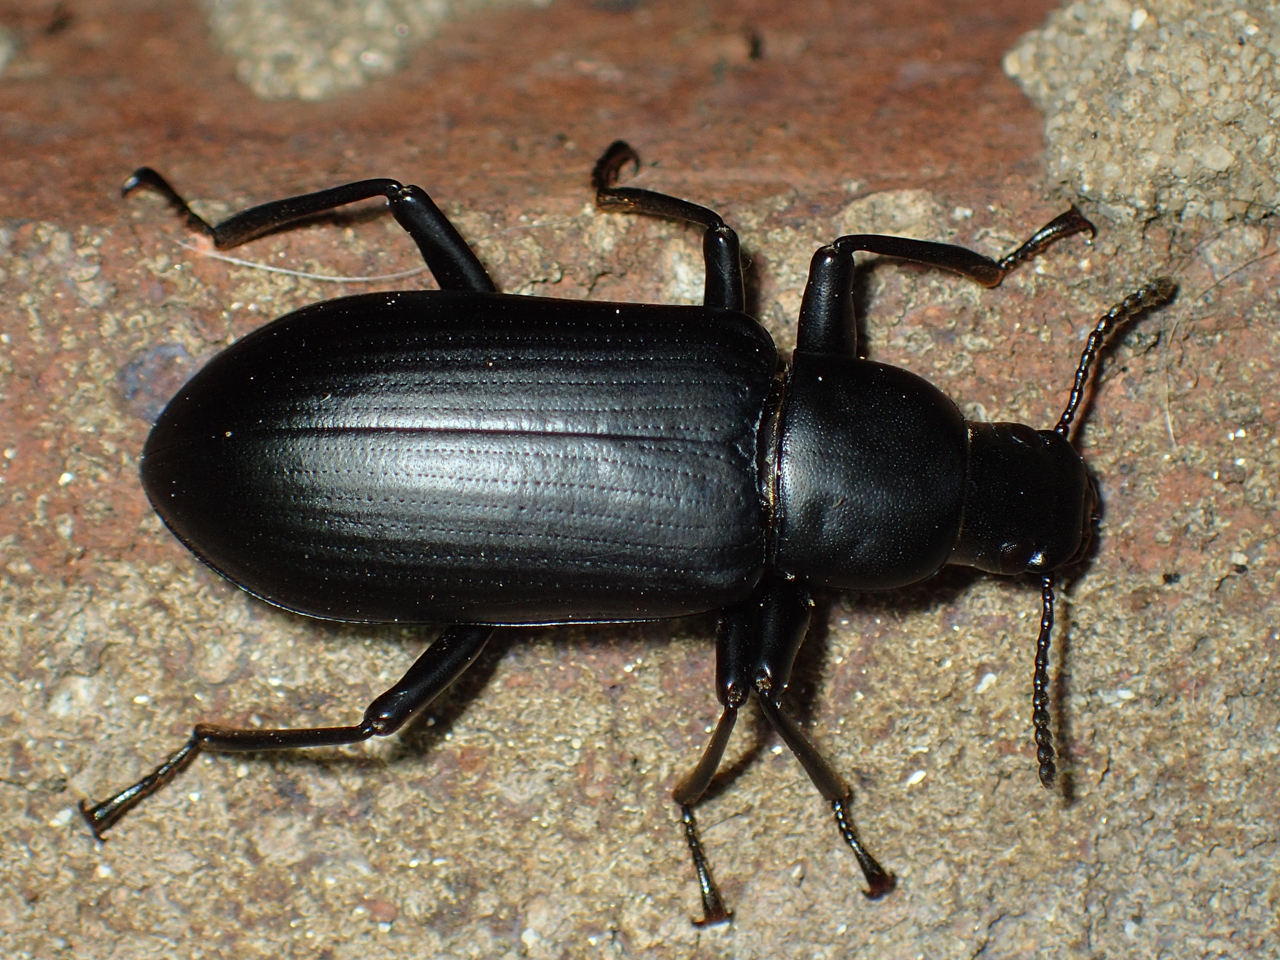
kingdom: Animalia
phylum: Arthropoda
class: Insecta
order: Coleoptera
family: Tenebrionidae
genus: Alobates
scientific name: Alobates pensylvanicus
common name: False mealworm beetle
